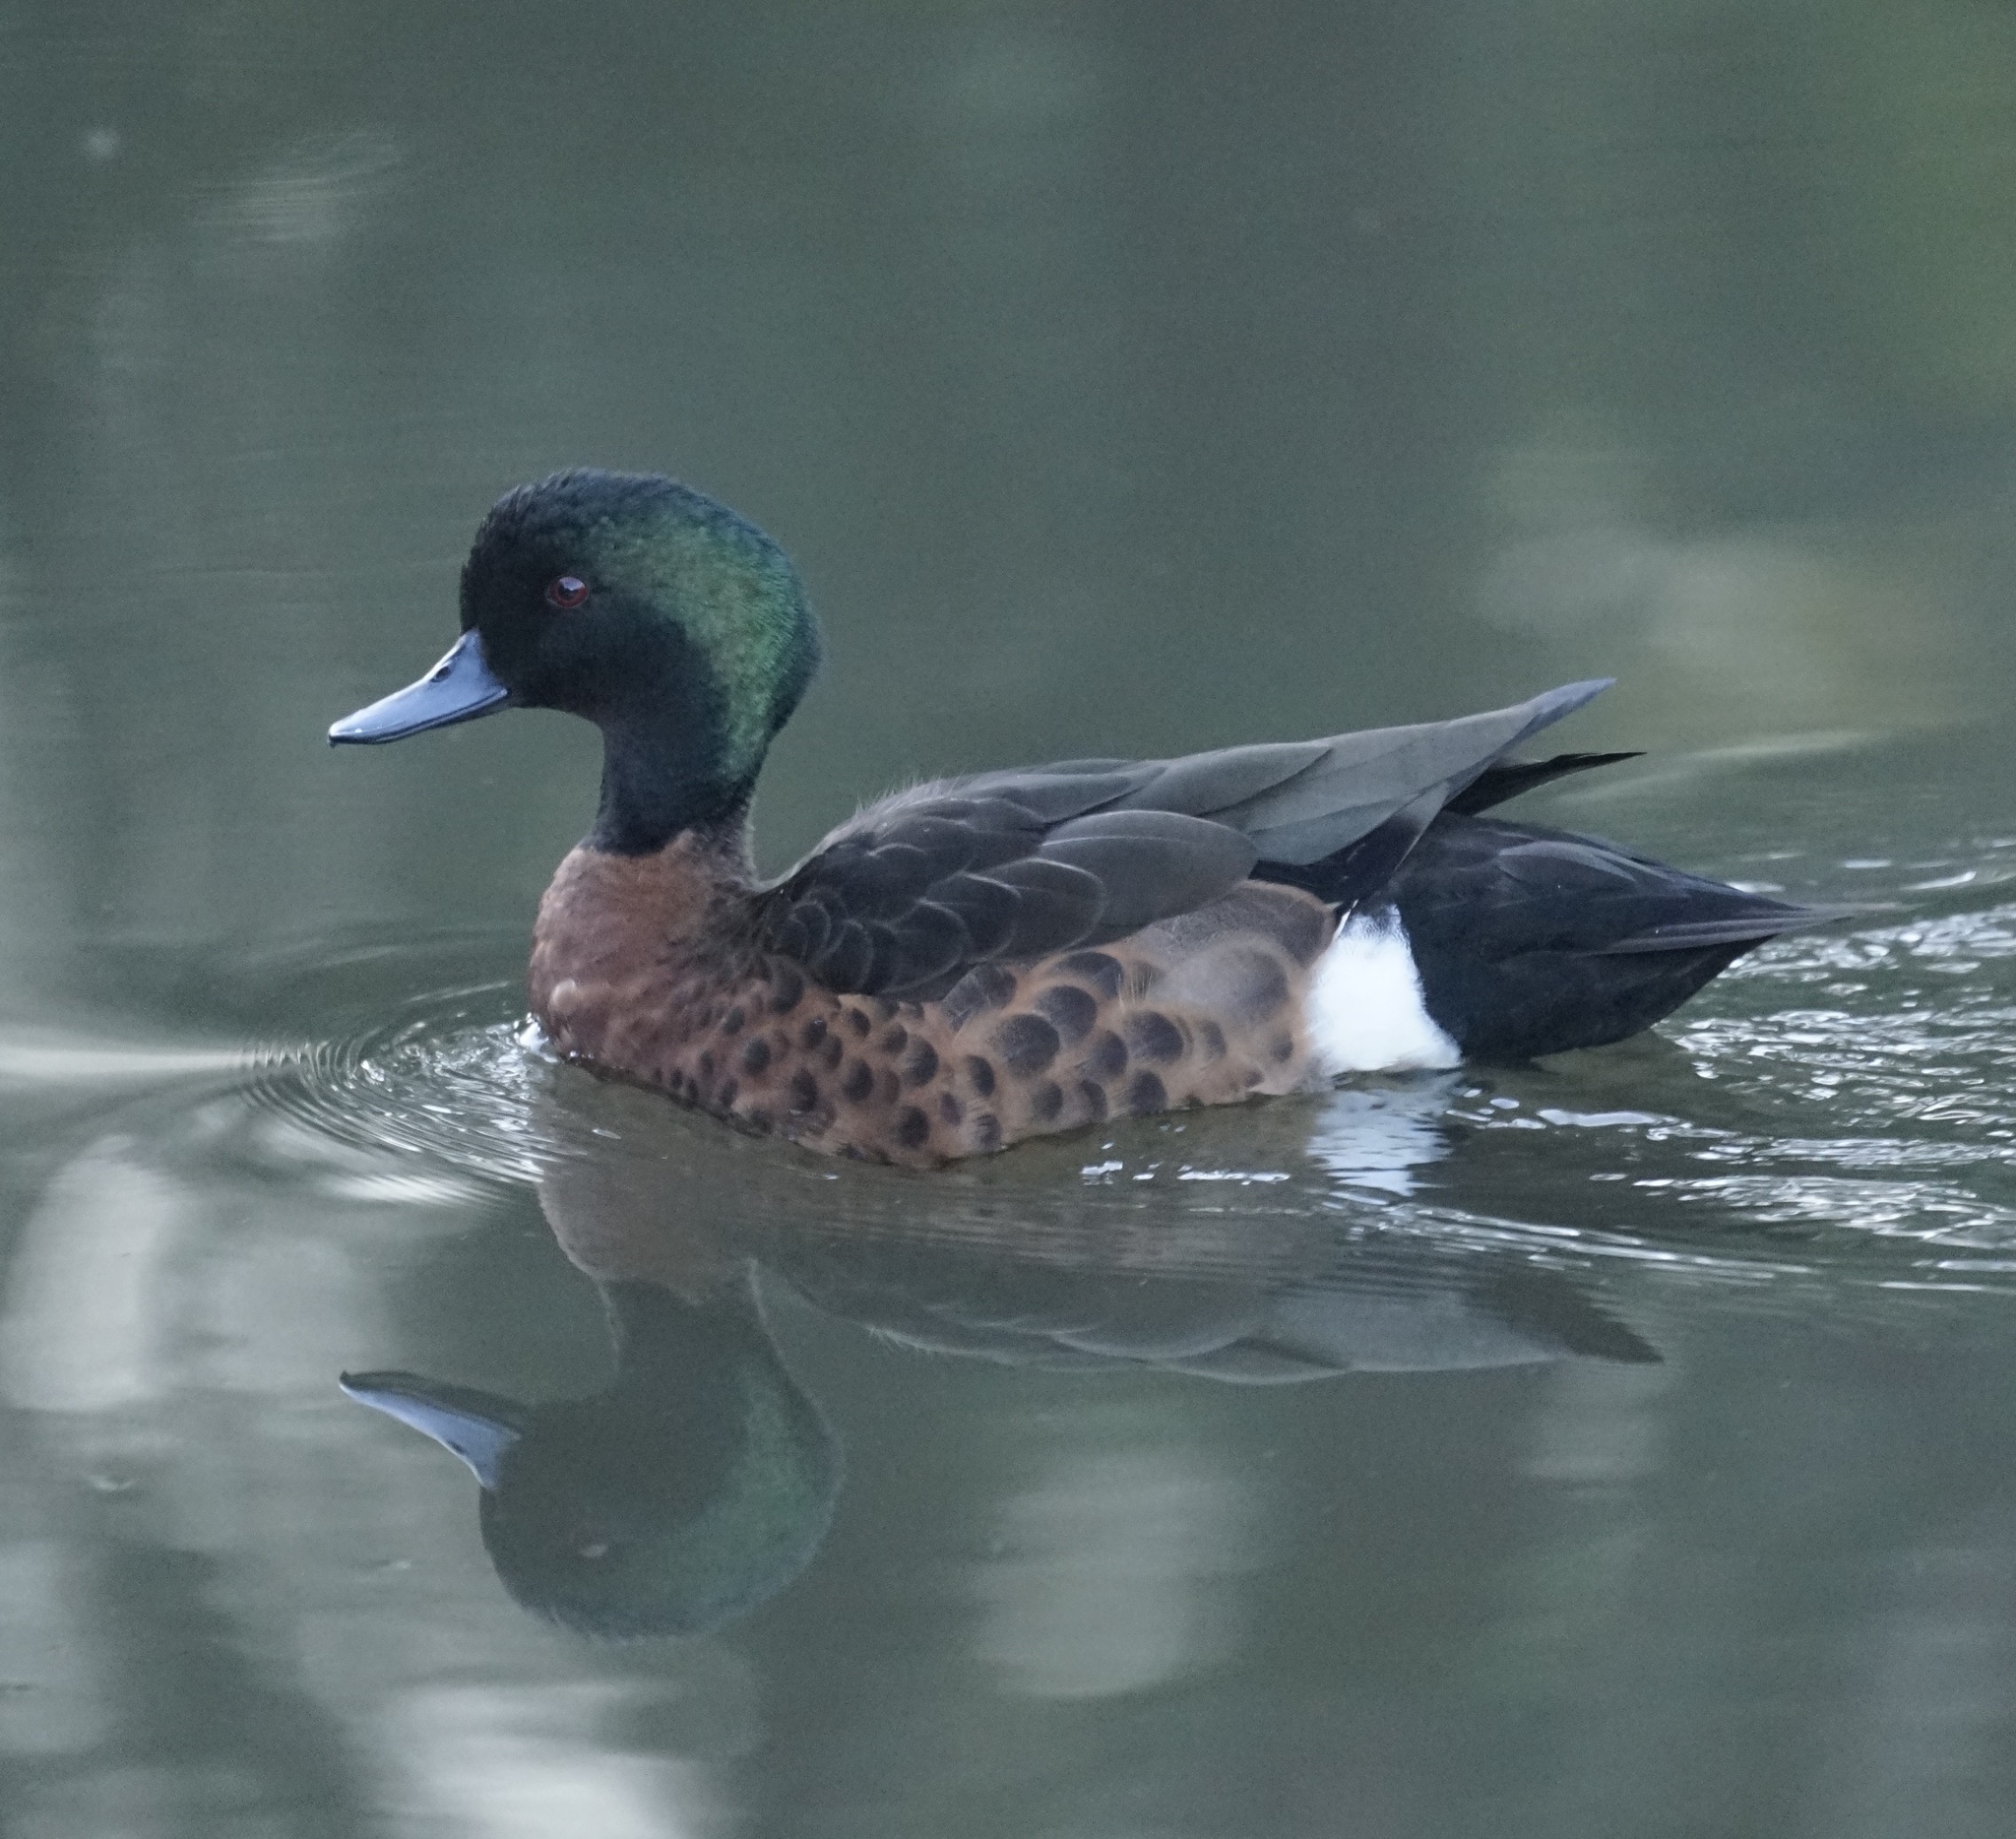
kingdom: Animalia
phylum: Chordata
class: Aves
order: Anseriformes
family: Anatidae
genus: Anas
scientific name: Anas castanea
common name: Chestnut teal
